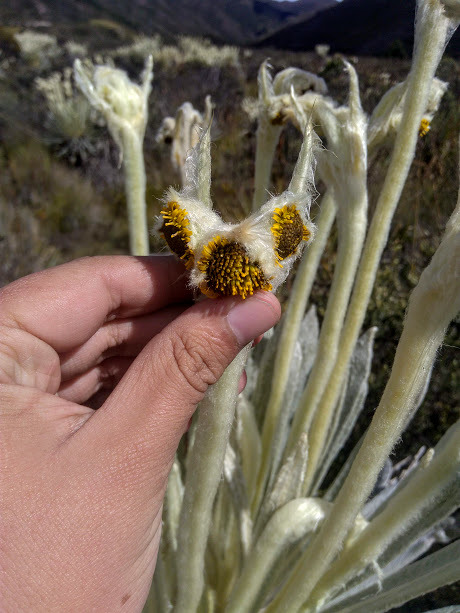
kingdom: Plantae
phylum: Tracheophyta
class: Magnoliopsida
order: Asterales
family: Asteraceae
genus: Espeletia
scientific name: Espeletia arbelaezii
